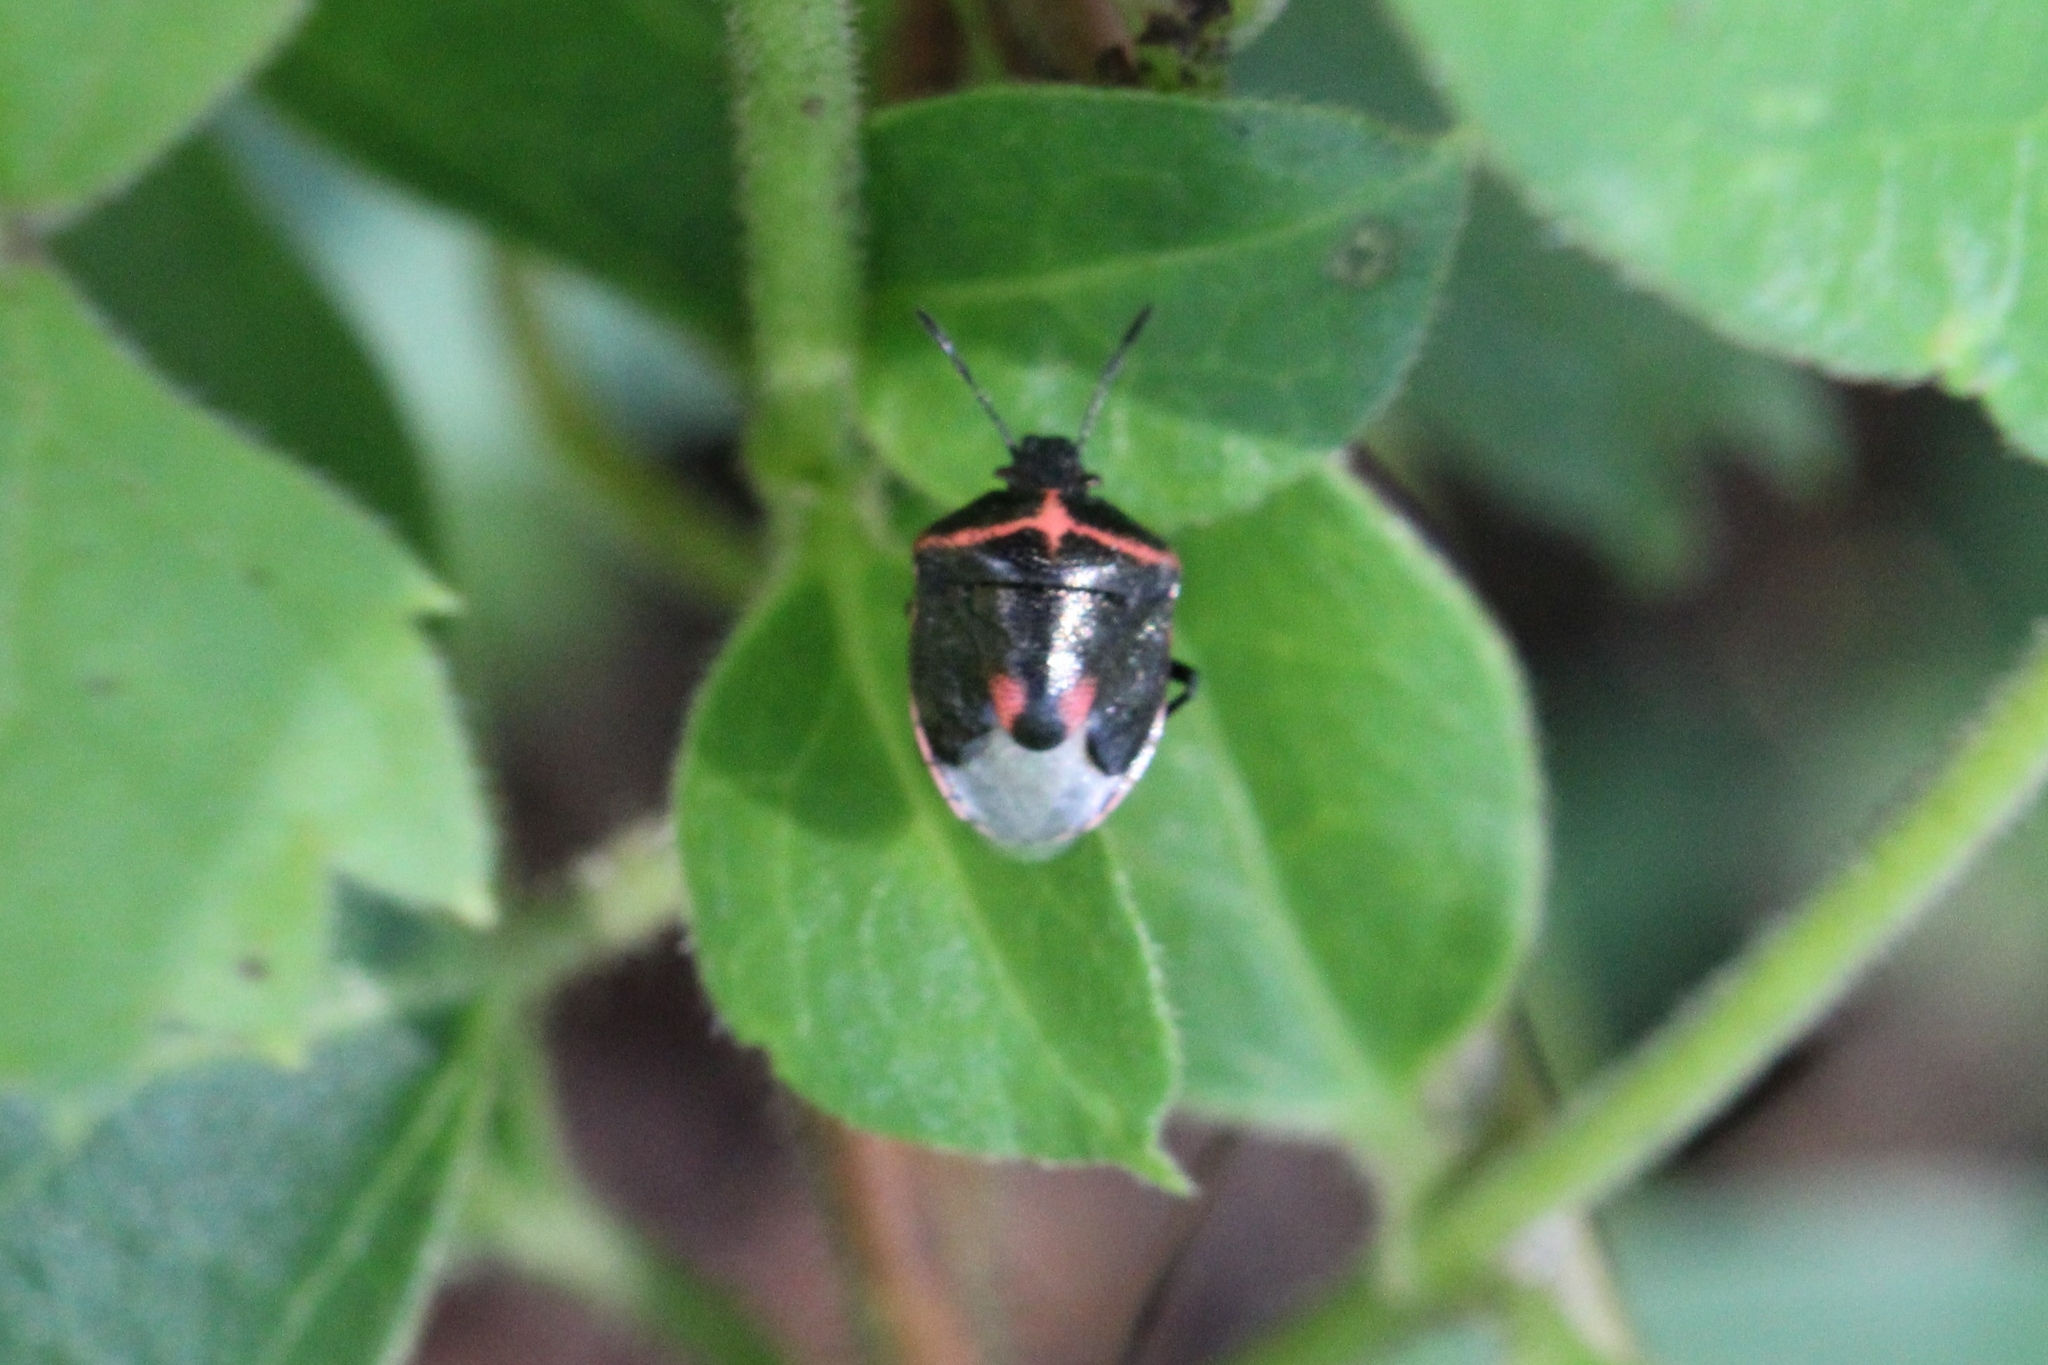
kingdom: Animalia
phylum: Arthropoda
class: Insecta
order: Hemiptera
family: Pentatomidae
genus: Cosmopepla
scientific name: Cosmopepla lintneriana
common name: Twice-stabbed stink bug
